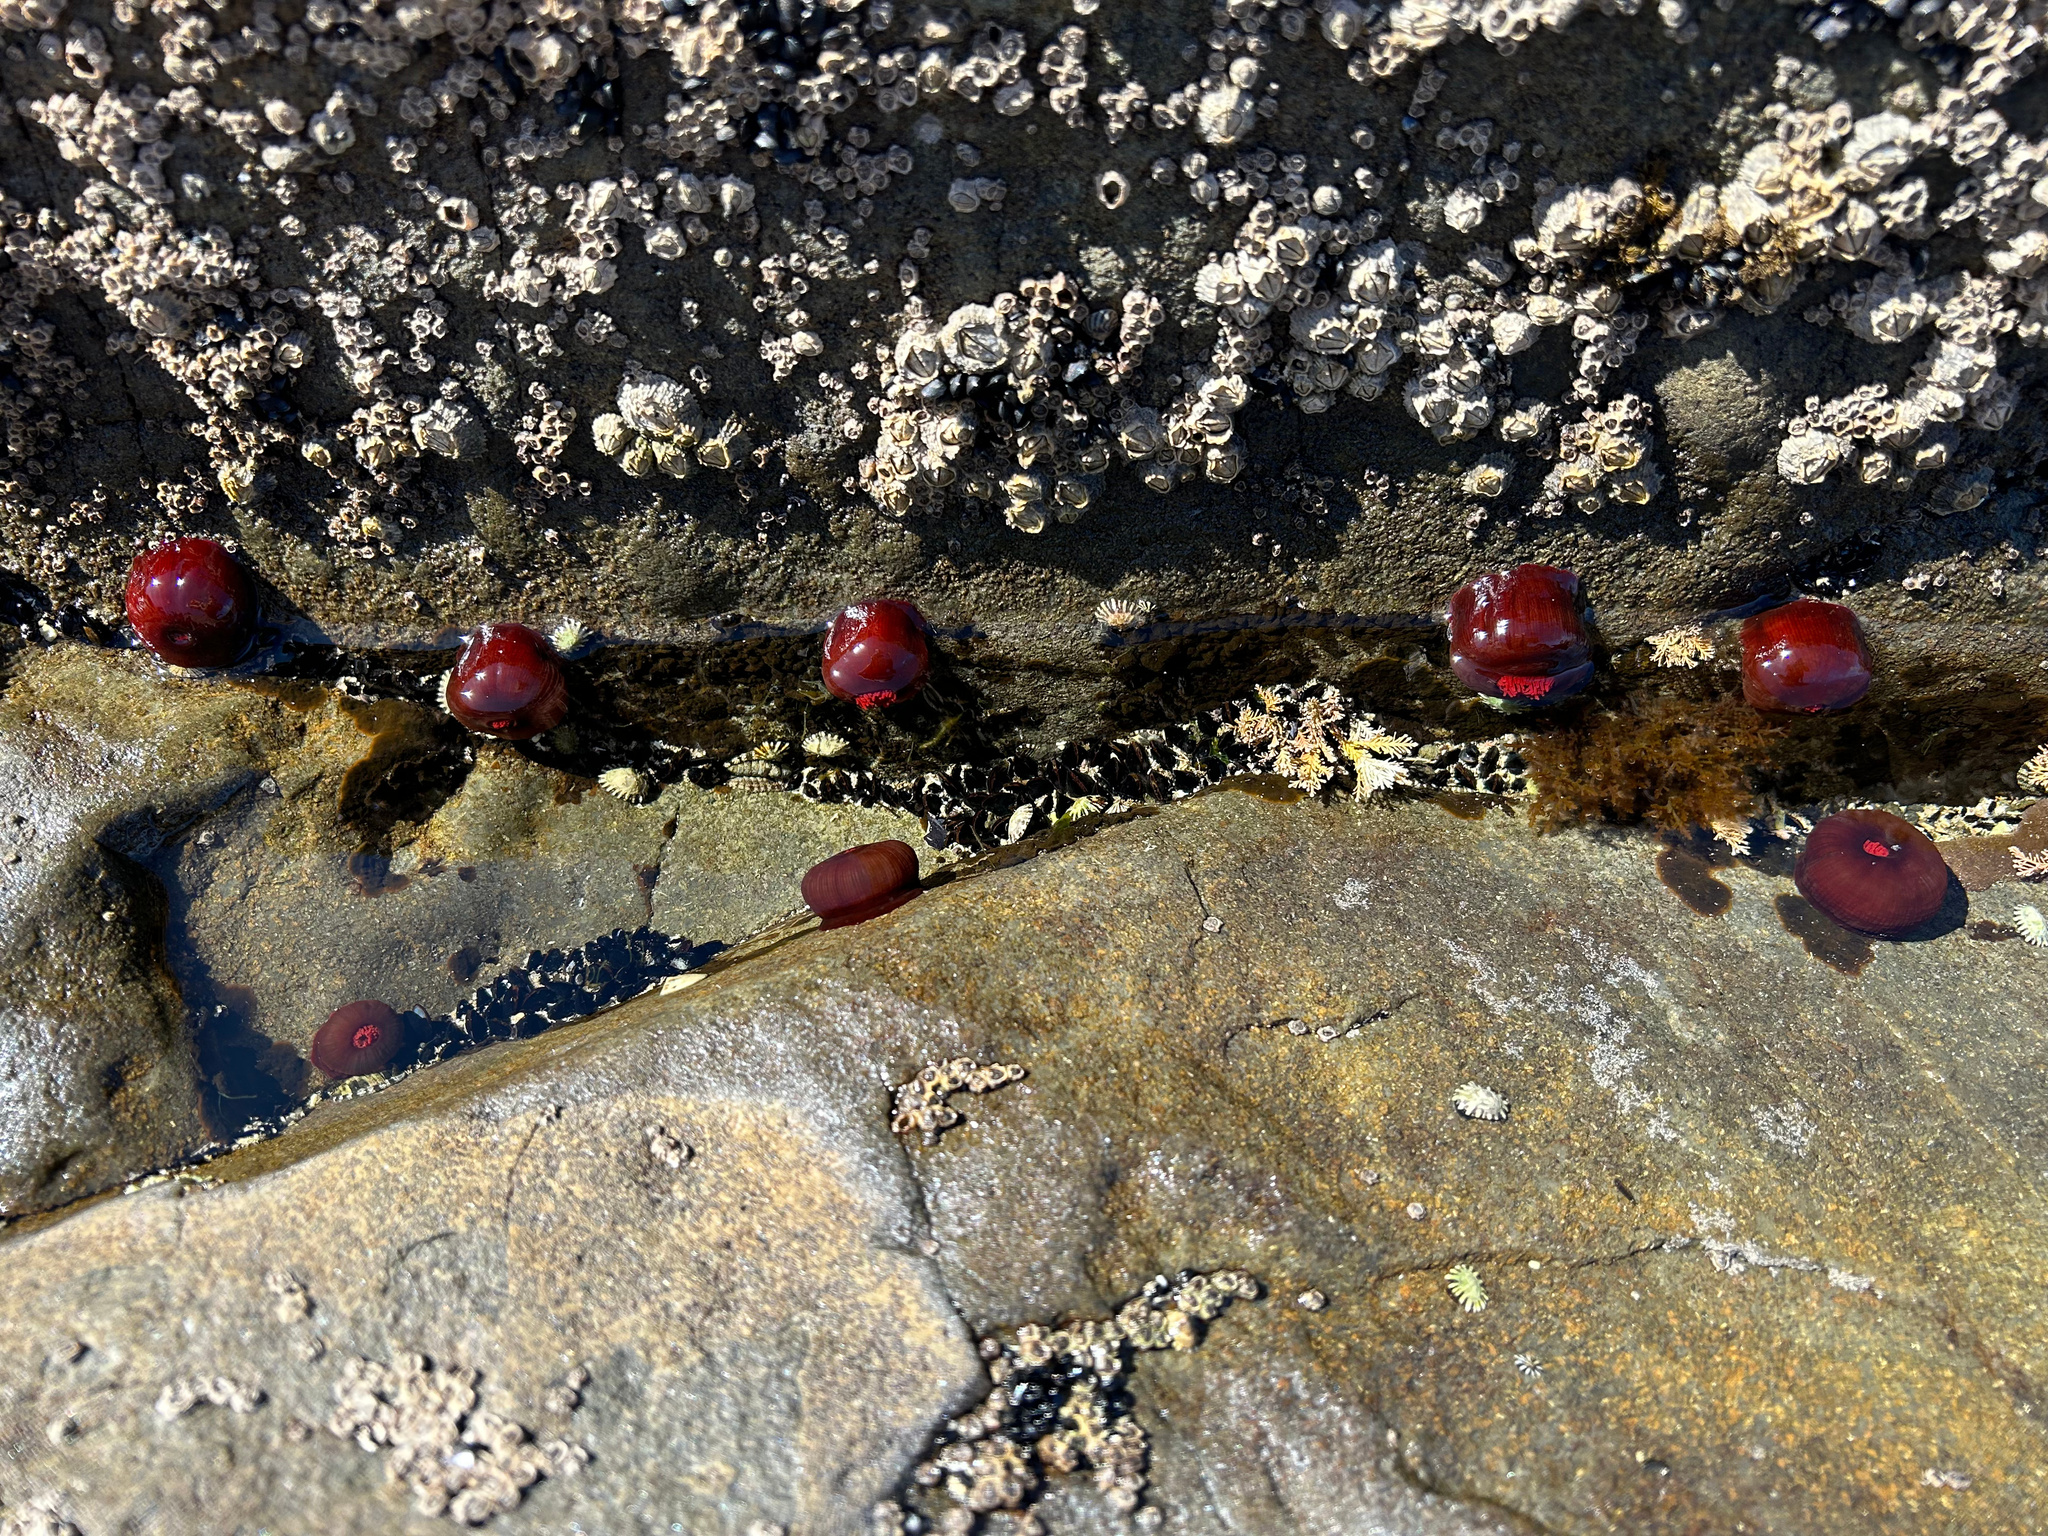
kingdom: Animalia
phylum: Cnidaria
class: Anthozoa
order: Actiniaria
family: Actiniidae
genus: Actinia
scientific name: Actinia tenebrosa
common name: Waratah anemone
